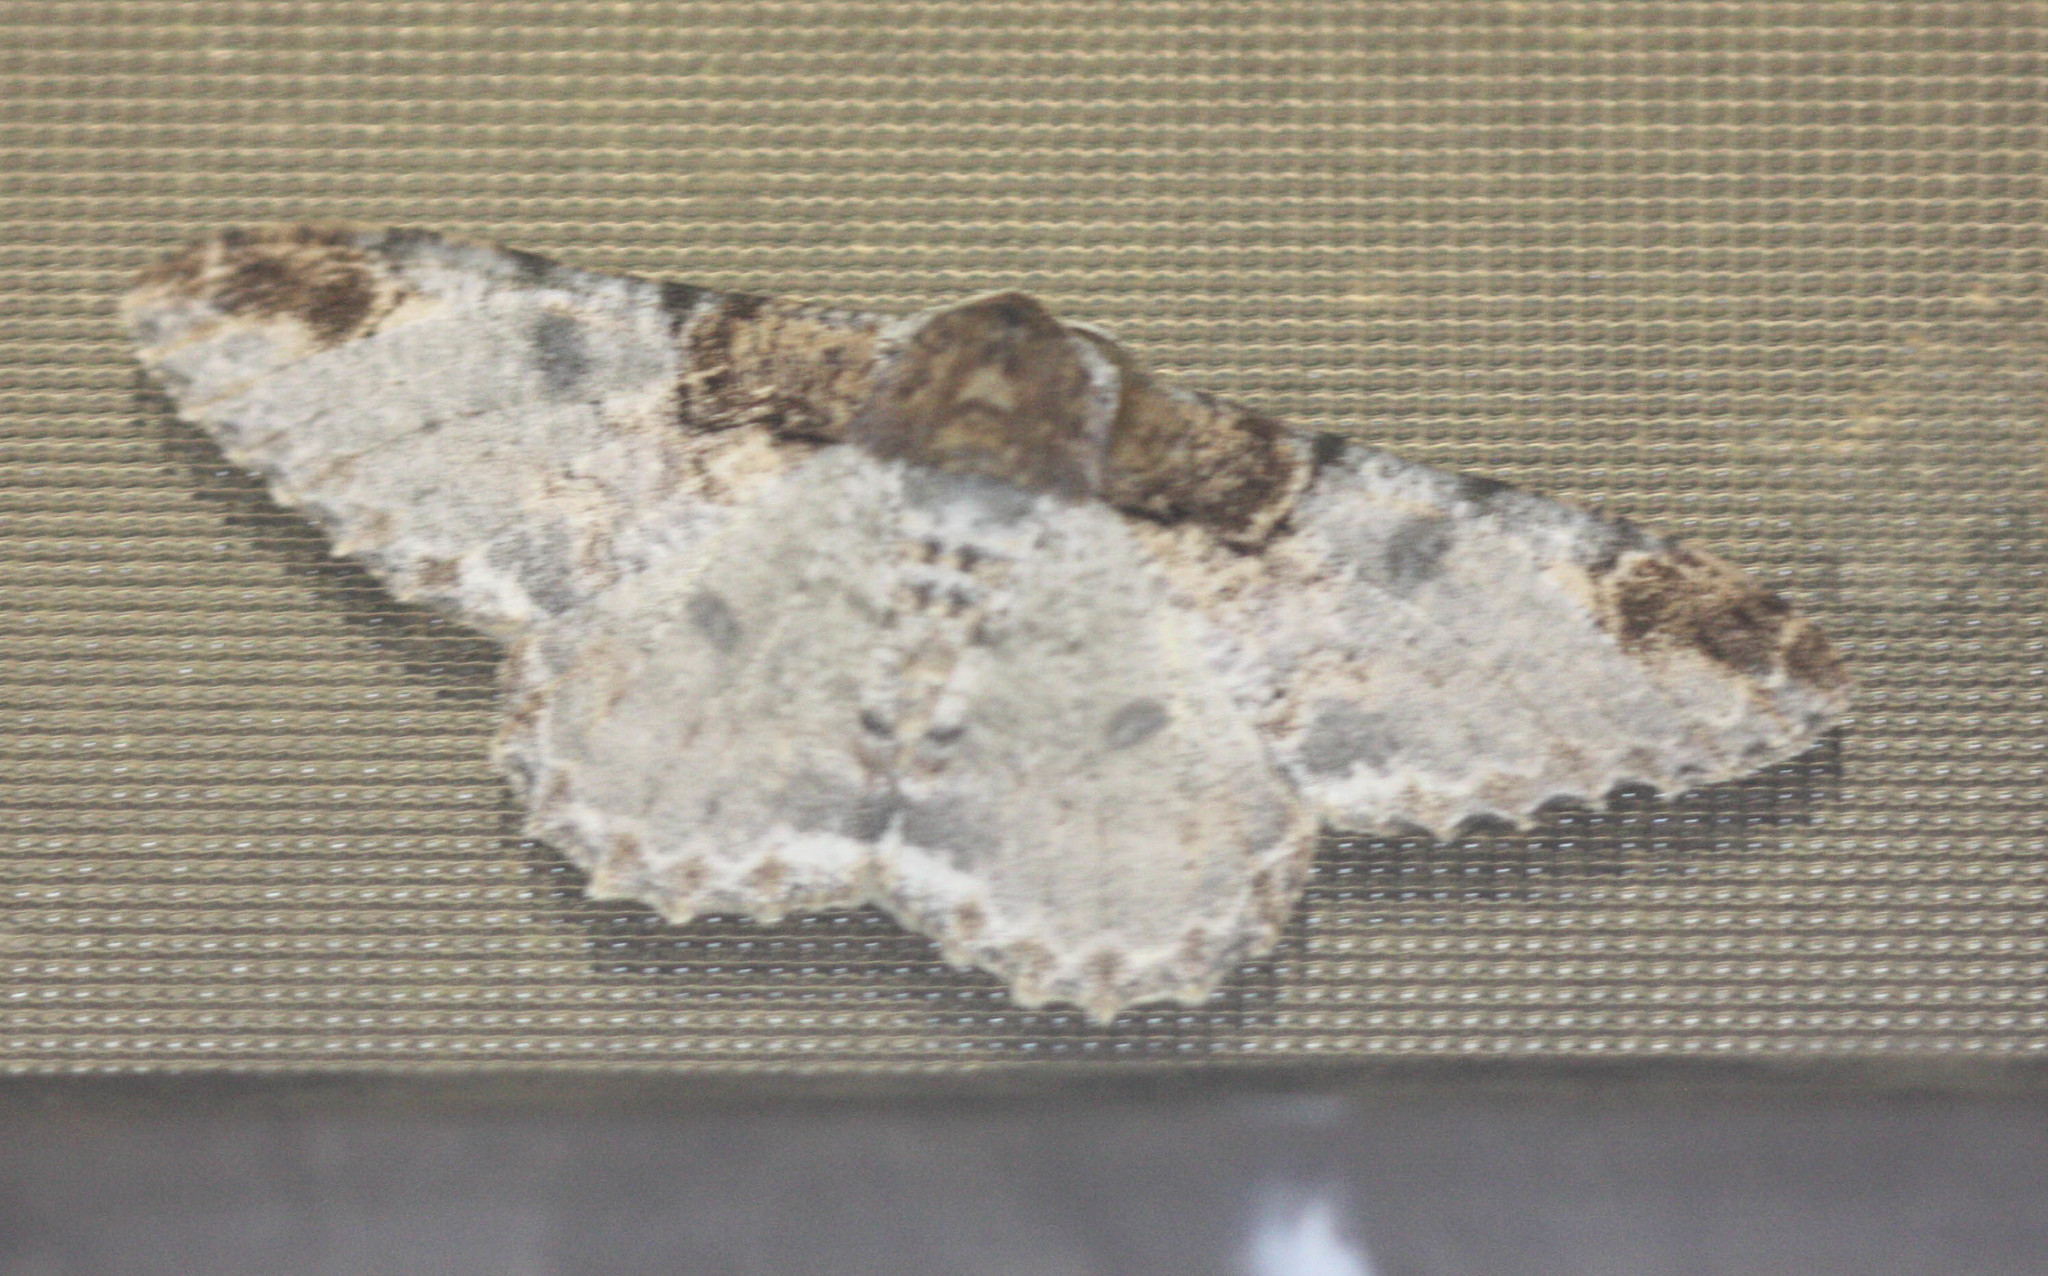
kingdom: Animalia
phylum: Arthropoda
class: Insecta
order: Lepidoptera
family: Geometridae
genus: Amraica
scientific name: Amraica solivagaria
